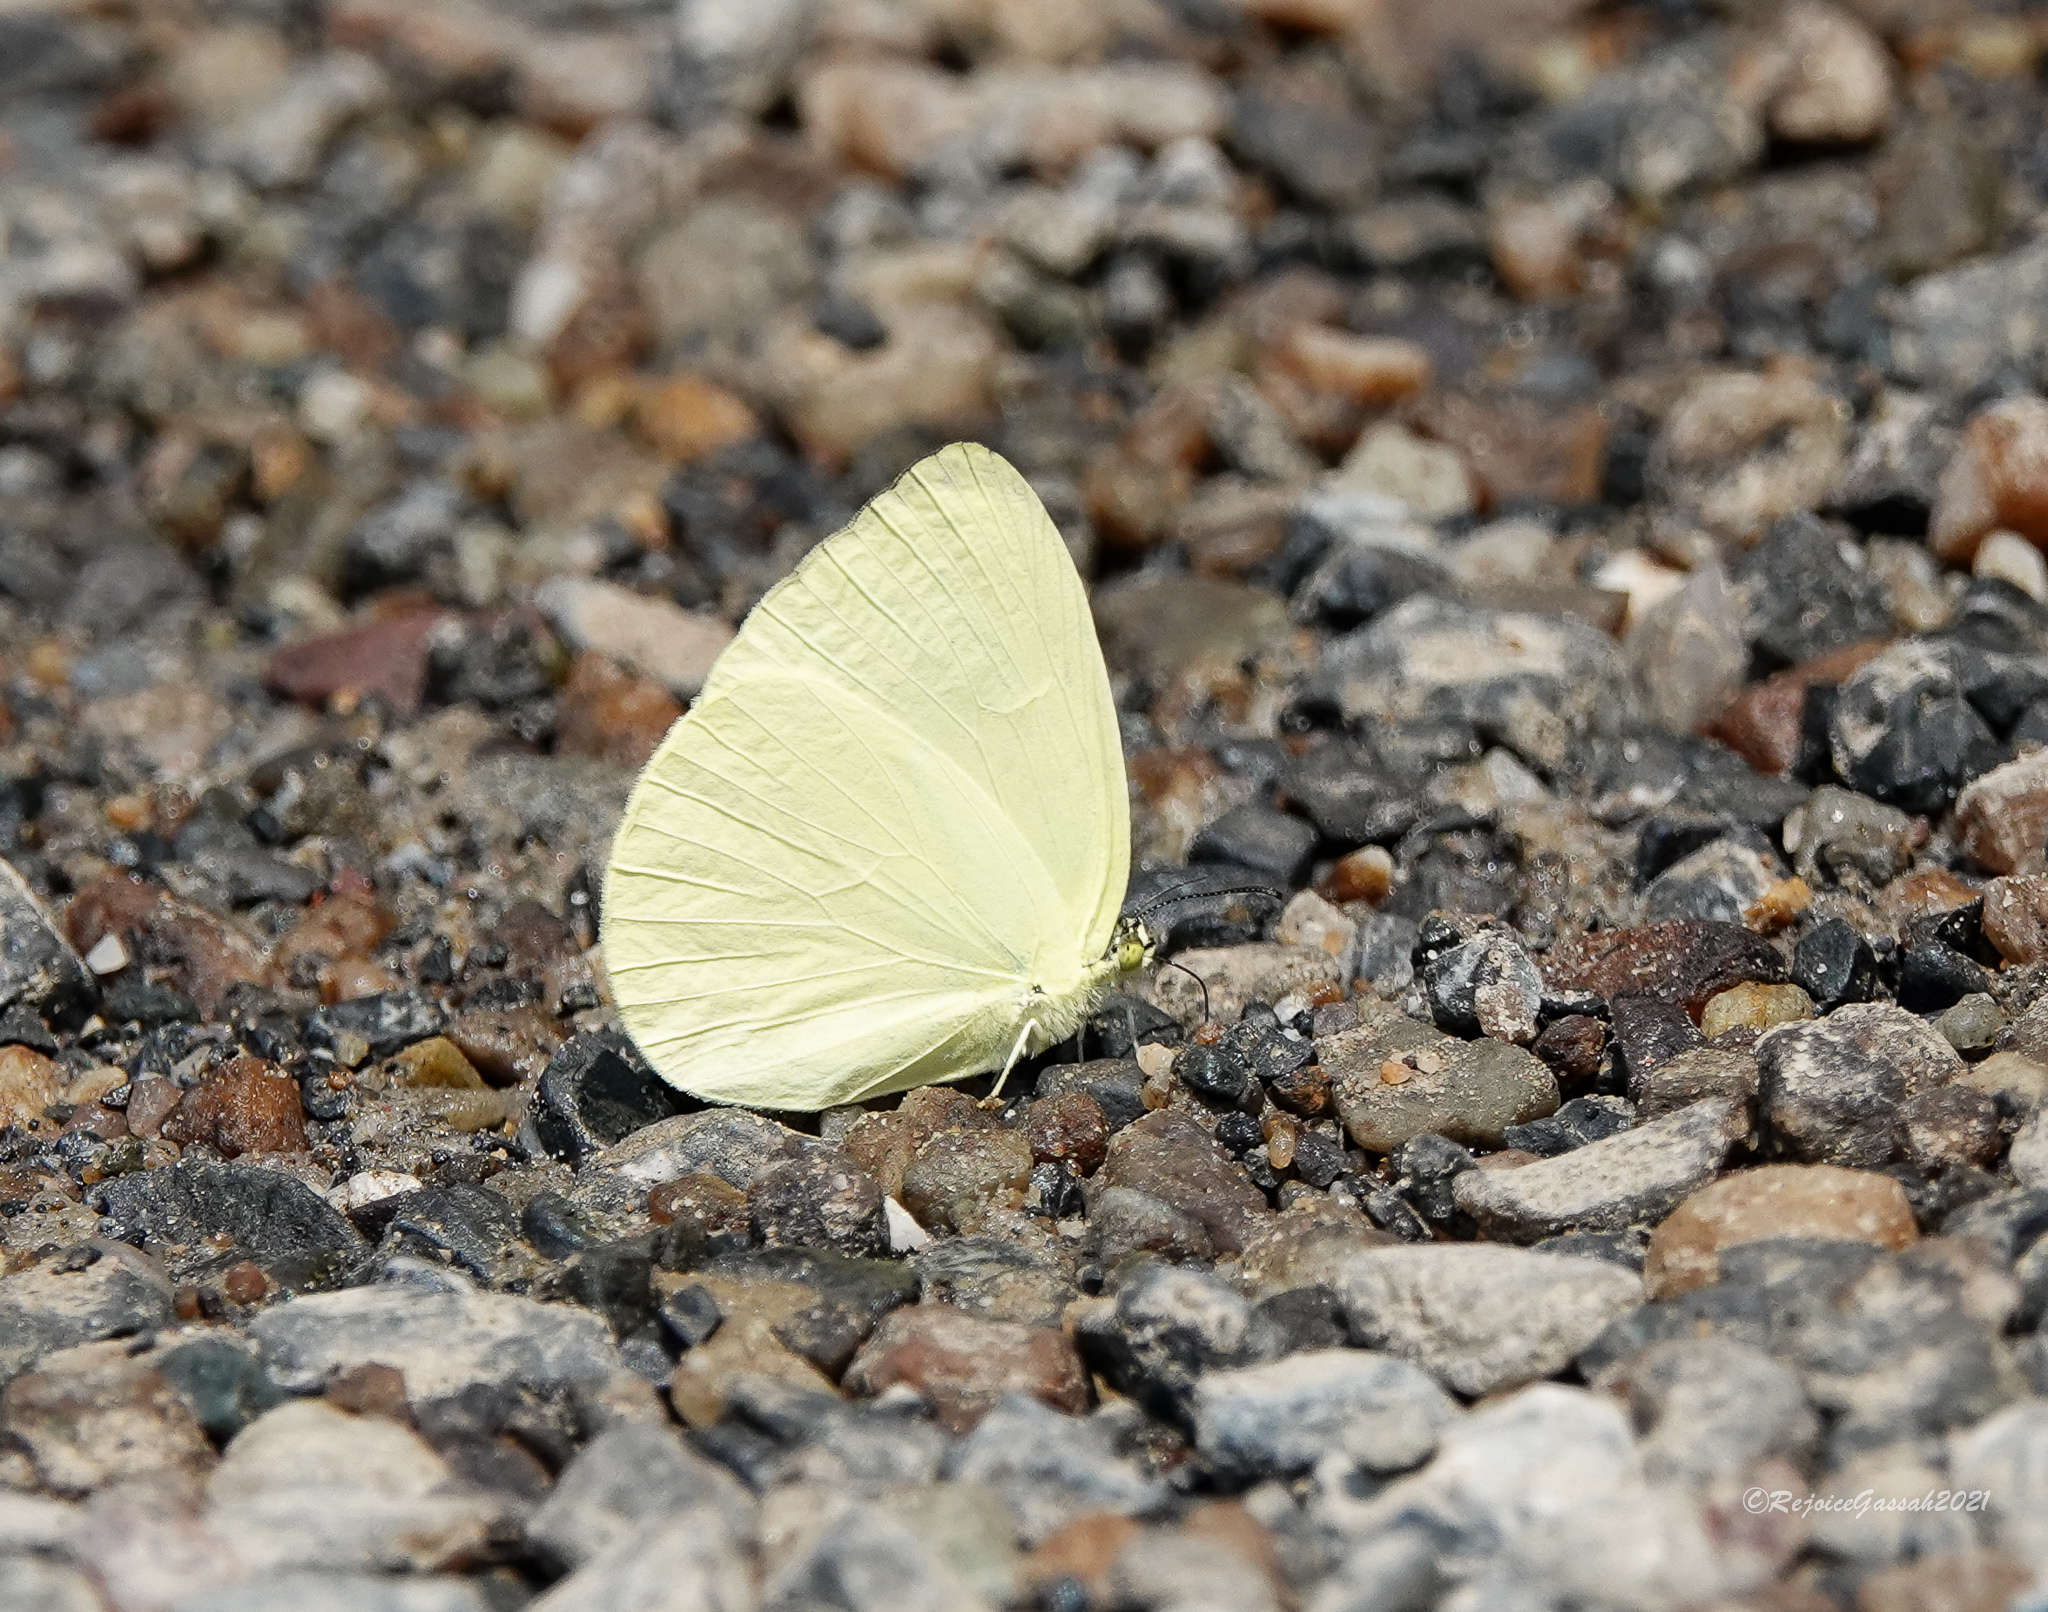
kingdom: Animalia
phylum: Arthropoda
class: Insecta
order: Lepidoptera
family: Pieridae
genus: Gandaca
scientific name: Gandaca harina
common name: Tree yellow
